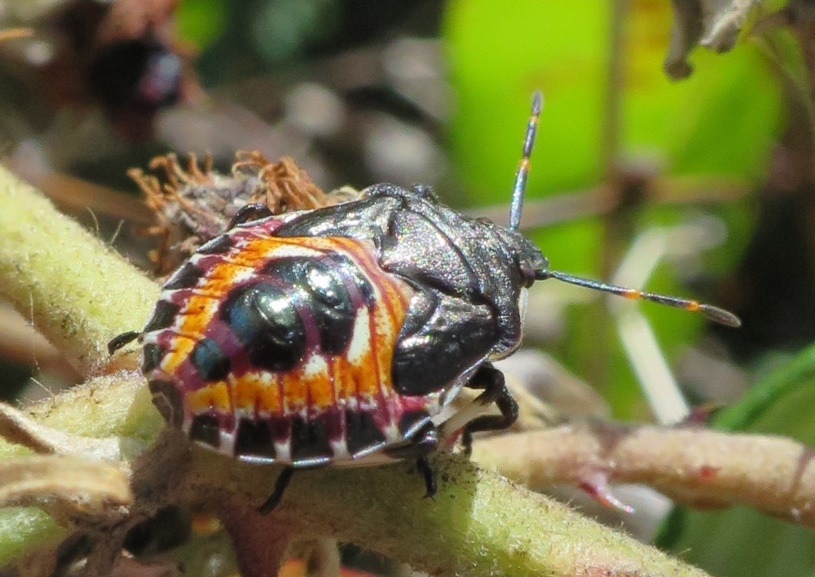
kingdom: Animalia
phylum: Arthropoda
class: Insecta
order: Hemiptera
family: Pentatomidae
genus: Oechalia
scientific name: Oechalia schellenbergii
